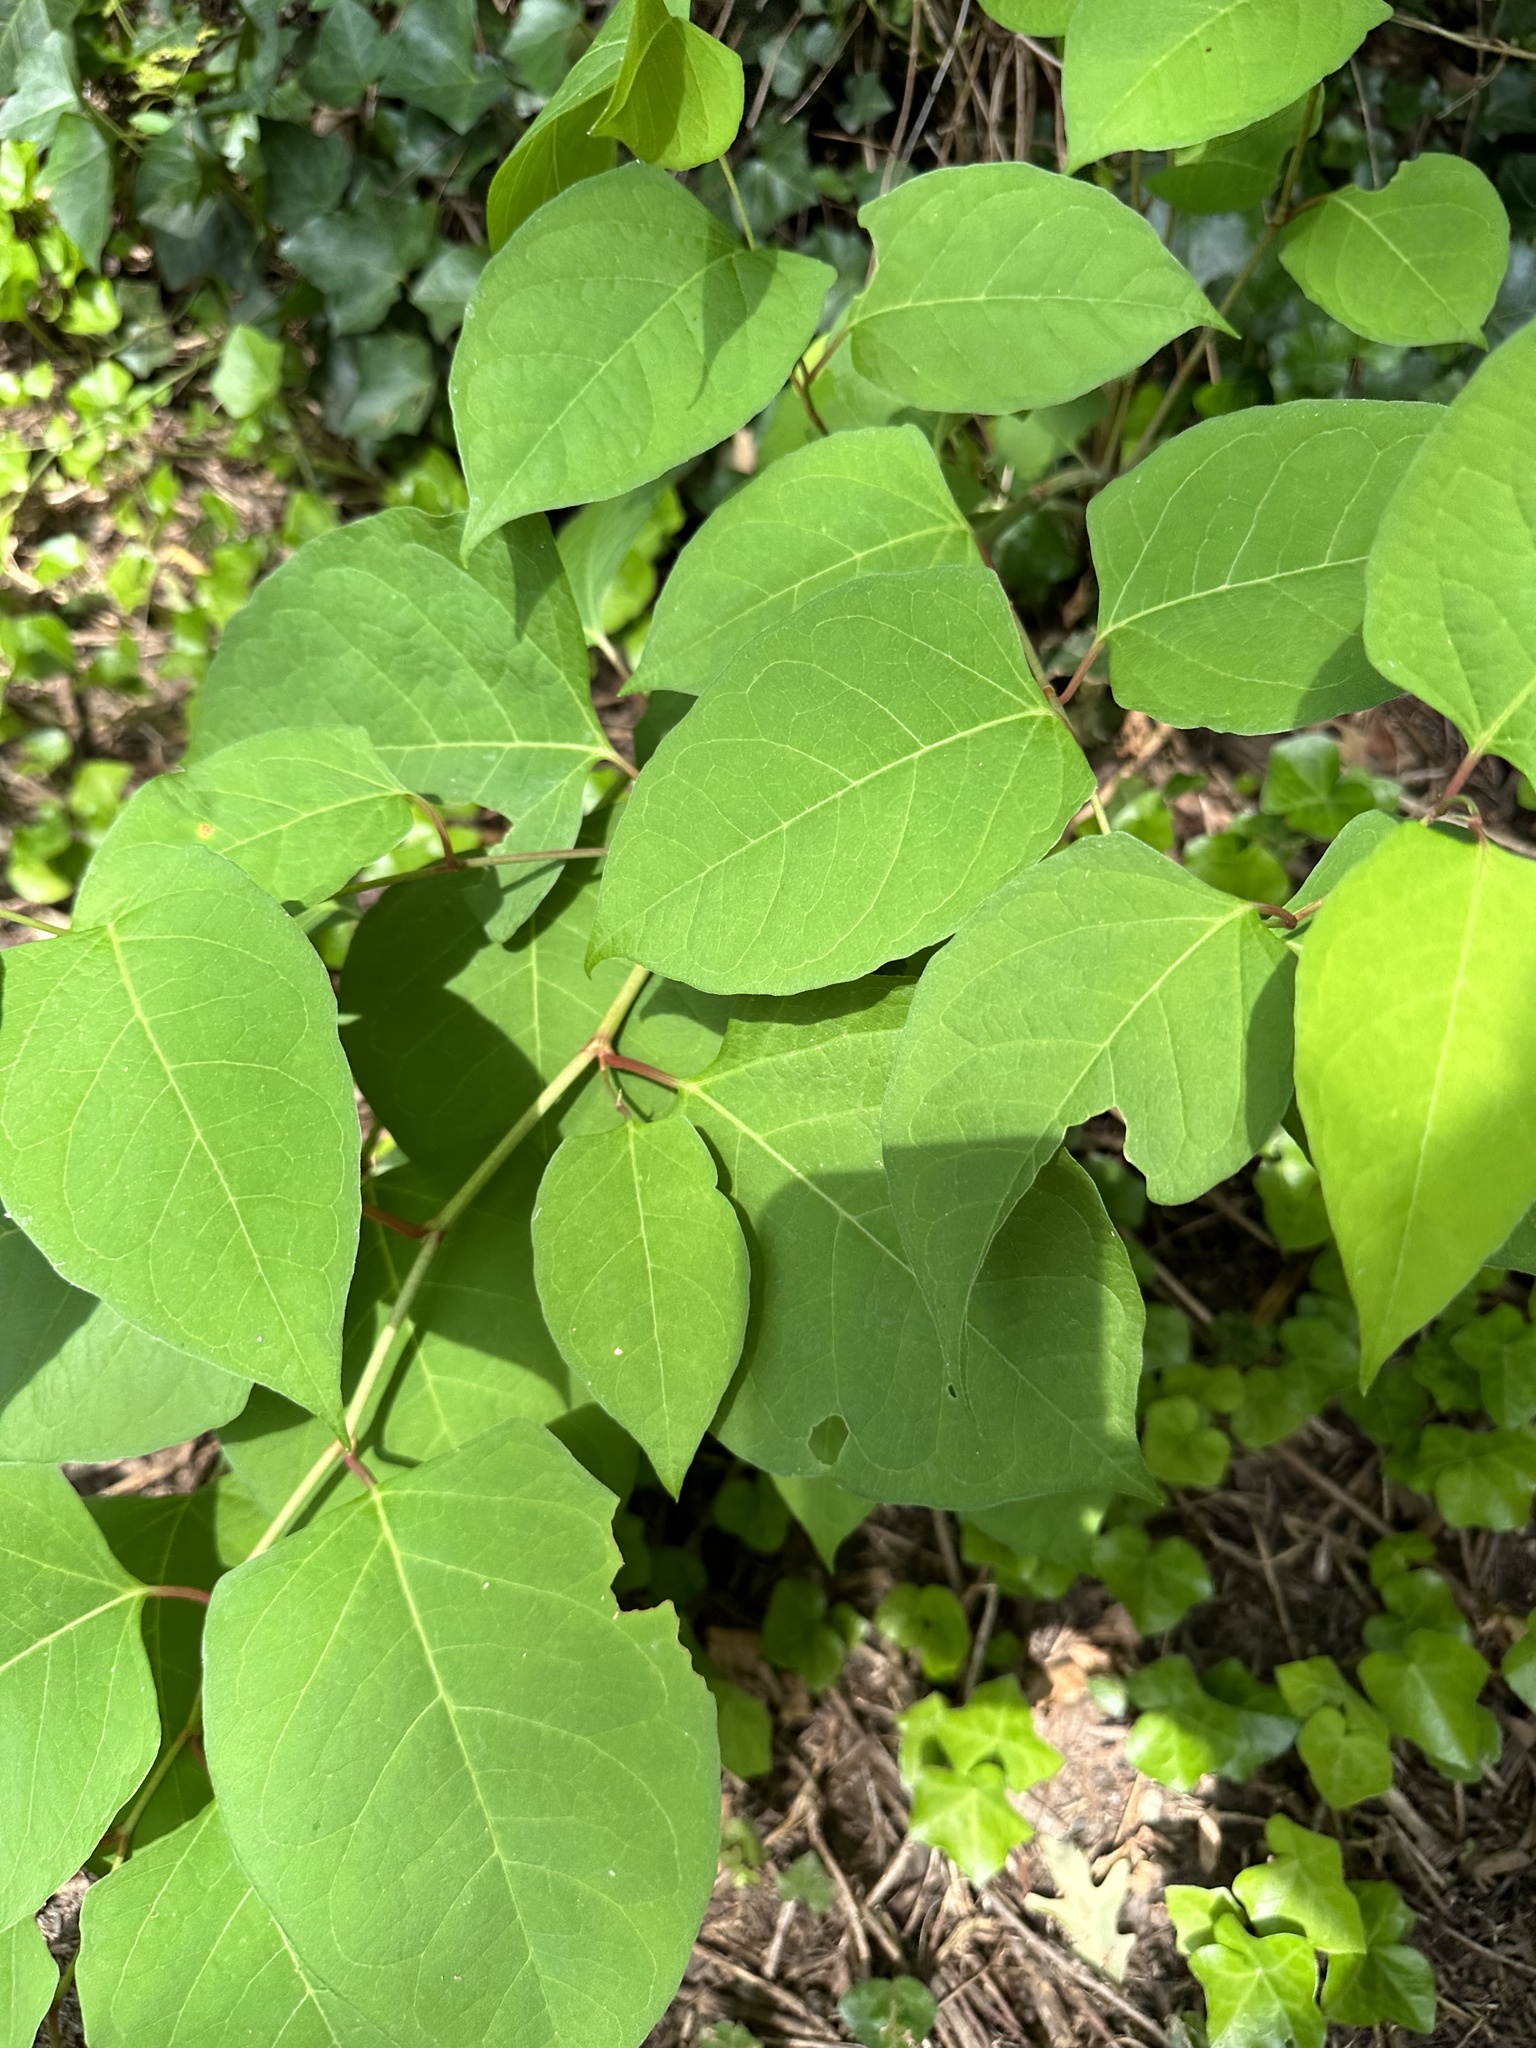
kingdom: Plantae
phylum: Tracheophyta
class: Magnoliopsida
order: Caryophyllales
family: Polygonaceae
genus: Reynoutria
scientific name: Reynoutria japonica
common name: Japanese knotweed
